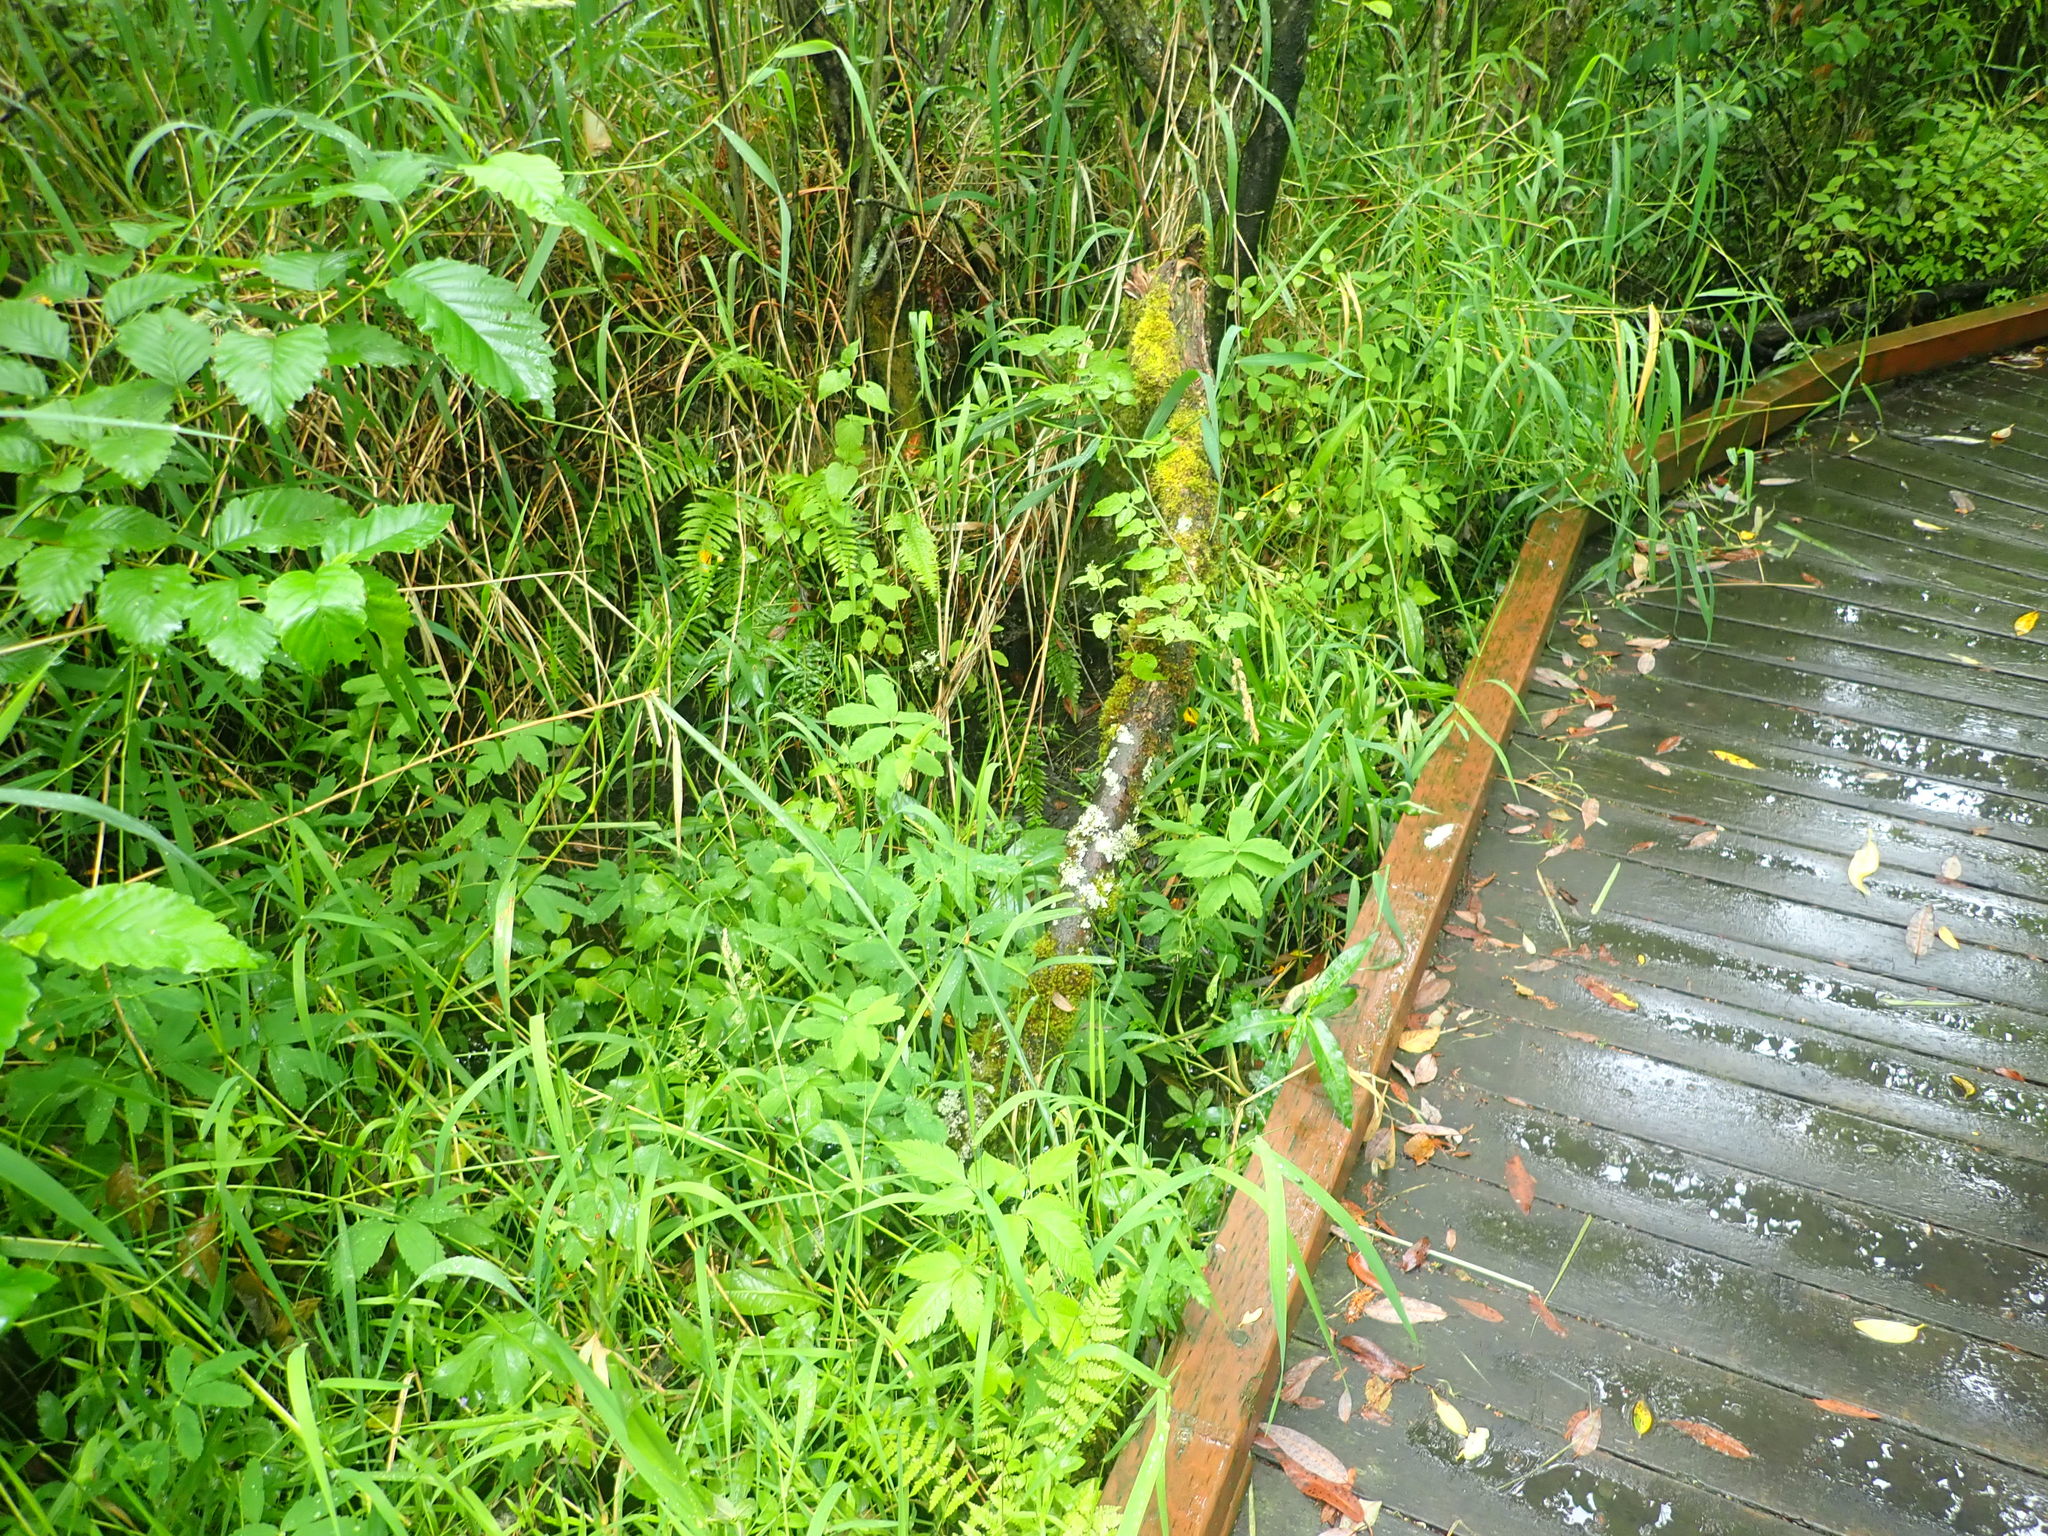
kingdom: Plantae
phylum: Tracheophyta
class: Magnoliopsida
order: Lamiales
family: Plantaginaceae
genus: Veronica
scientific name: Veronica scutellata
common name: Marsh speedwell
